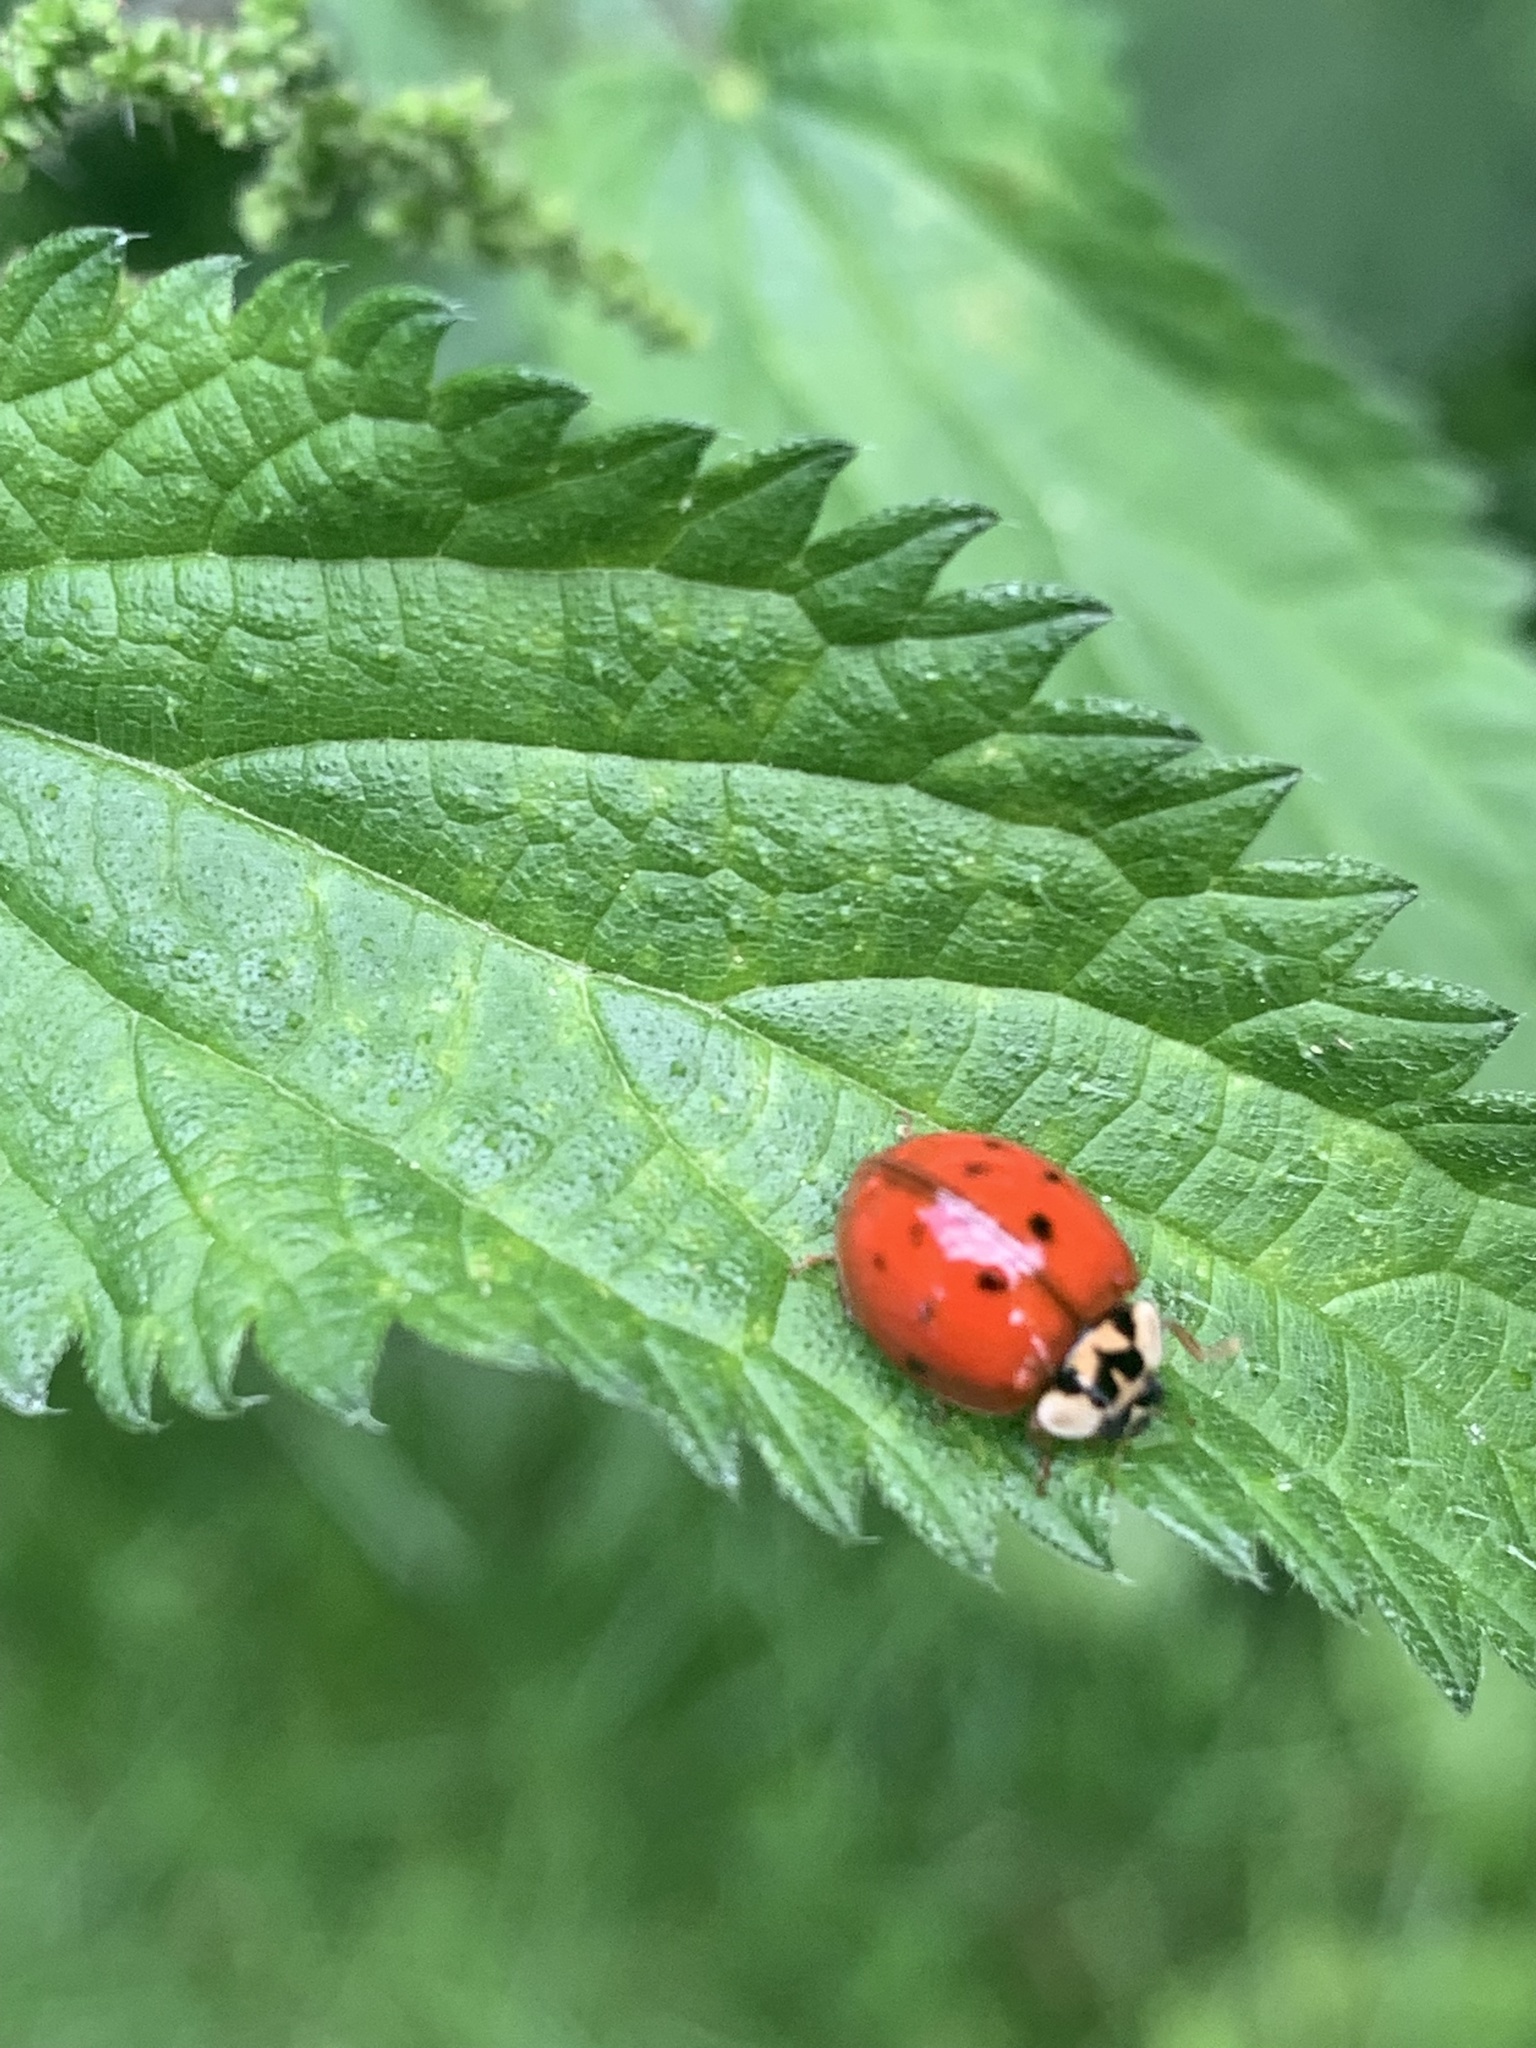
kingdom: Animalia
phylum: Arthropoda
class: Insecta
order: Coleoptera
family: Coccinellidae
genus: Harmonia
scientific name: Harmonia axyridis
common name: Harlequin ladybird
